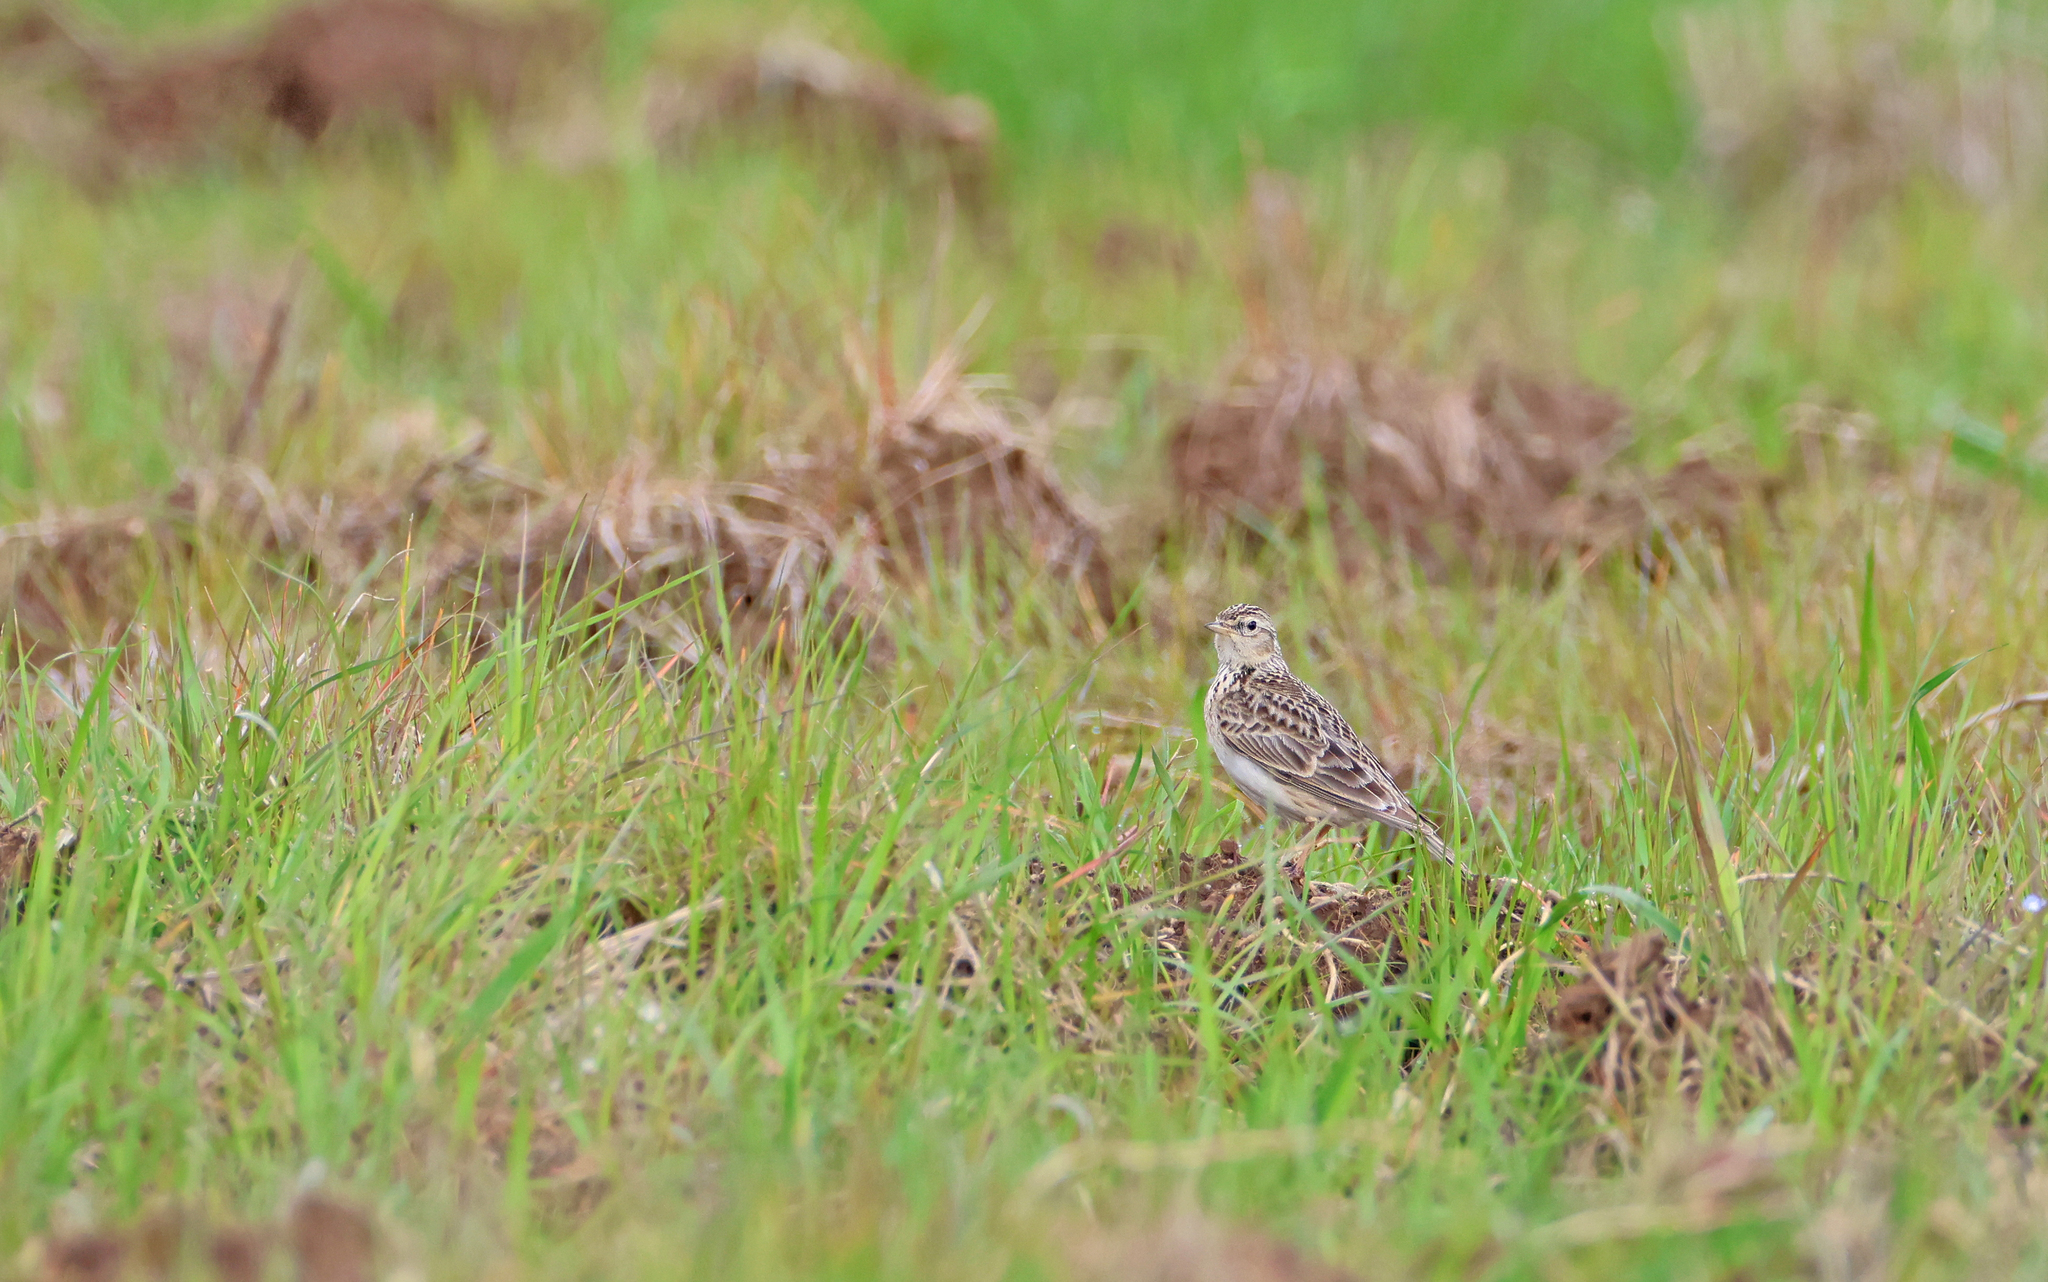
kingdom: Animalia
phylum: Chordata
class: Aves
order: Passeriformes
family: Alaudidae
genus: Alauda
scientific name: Alauda arvensis
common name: Eurasian skylark
